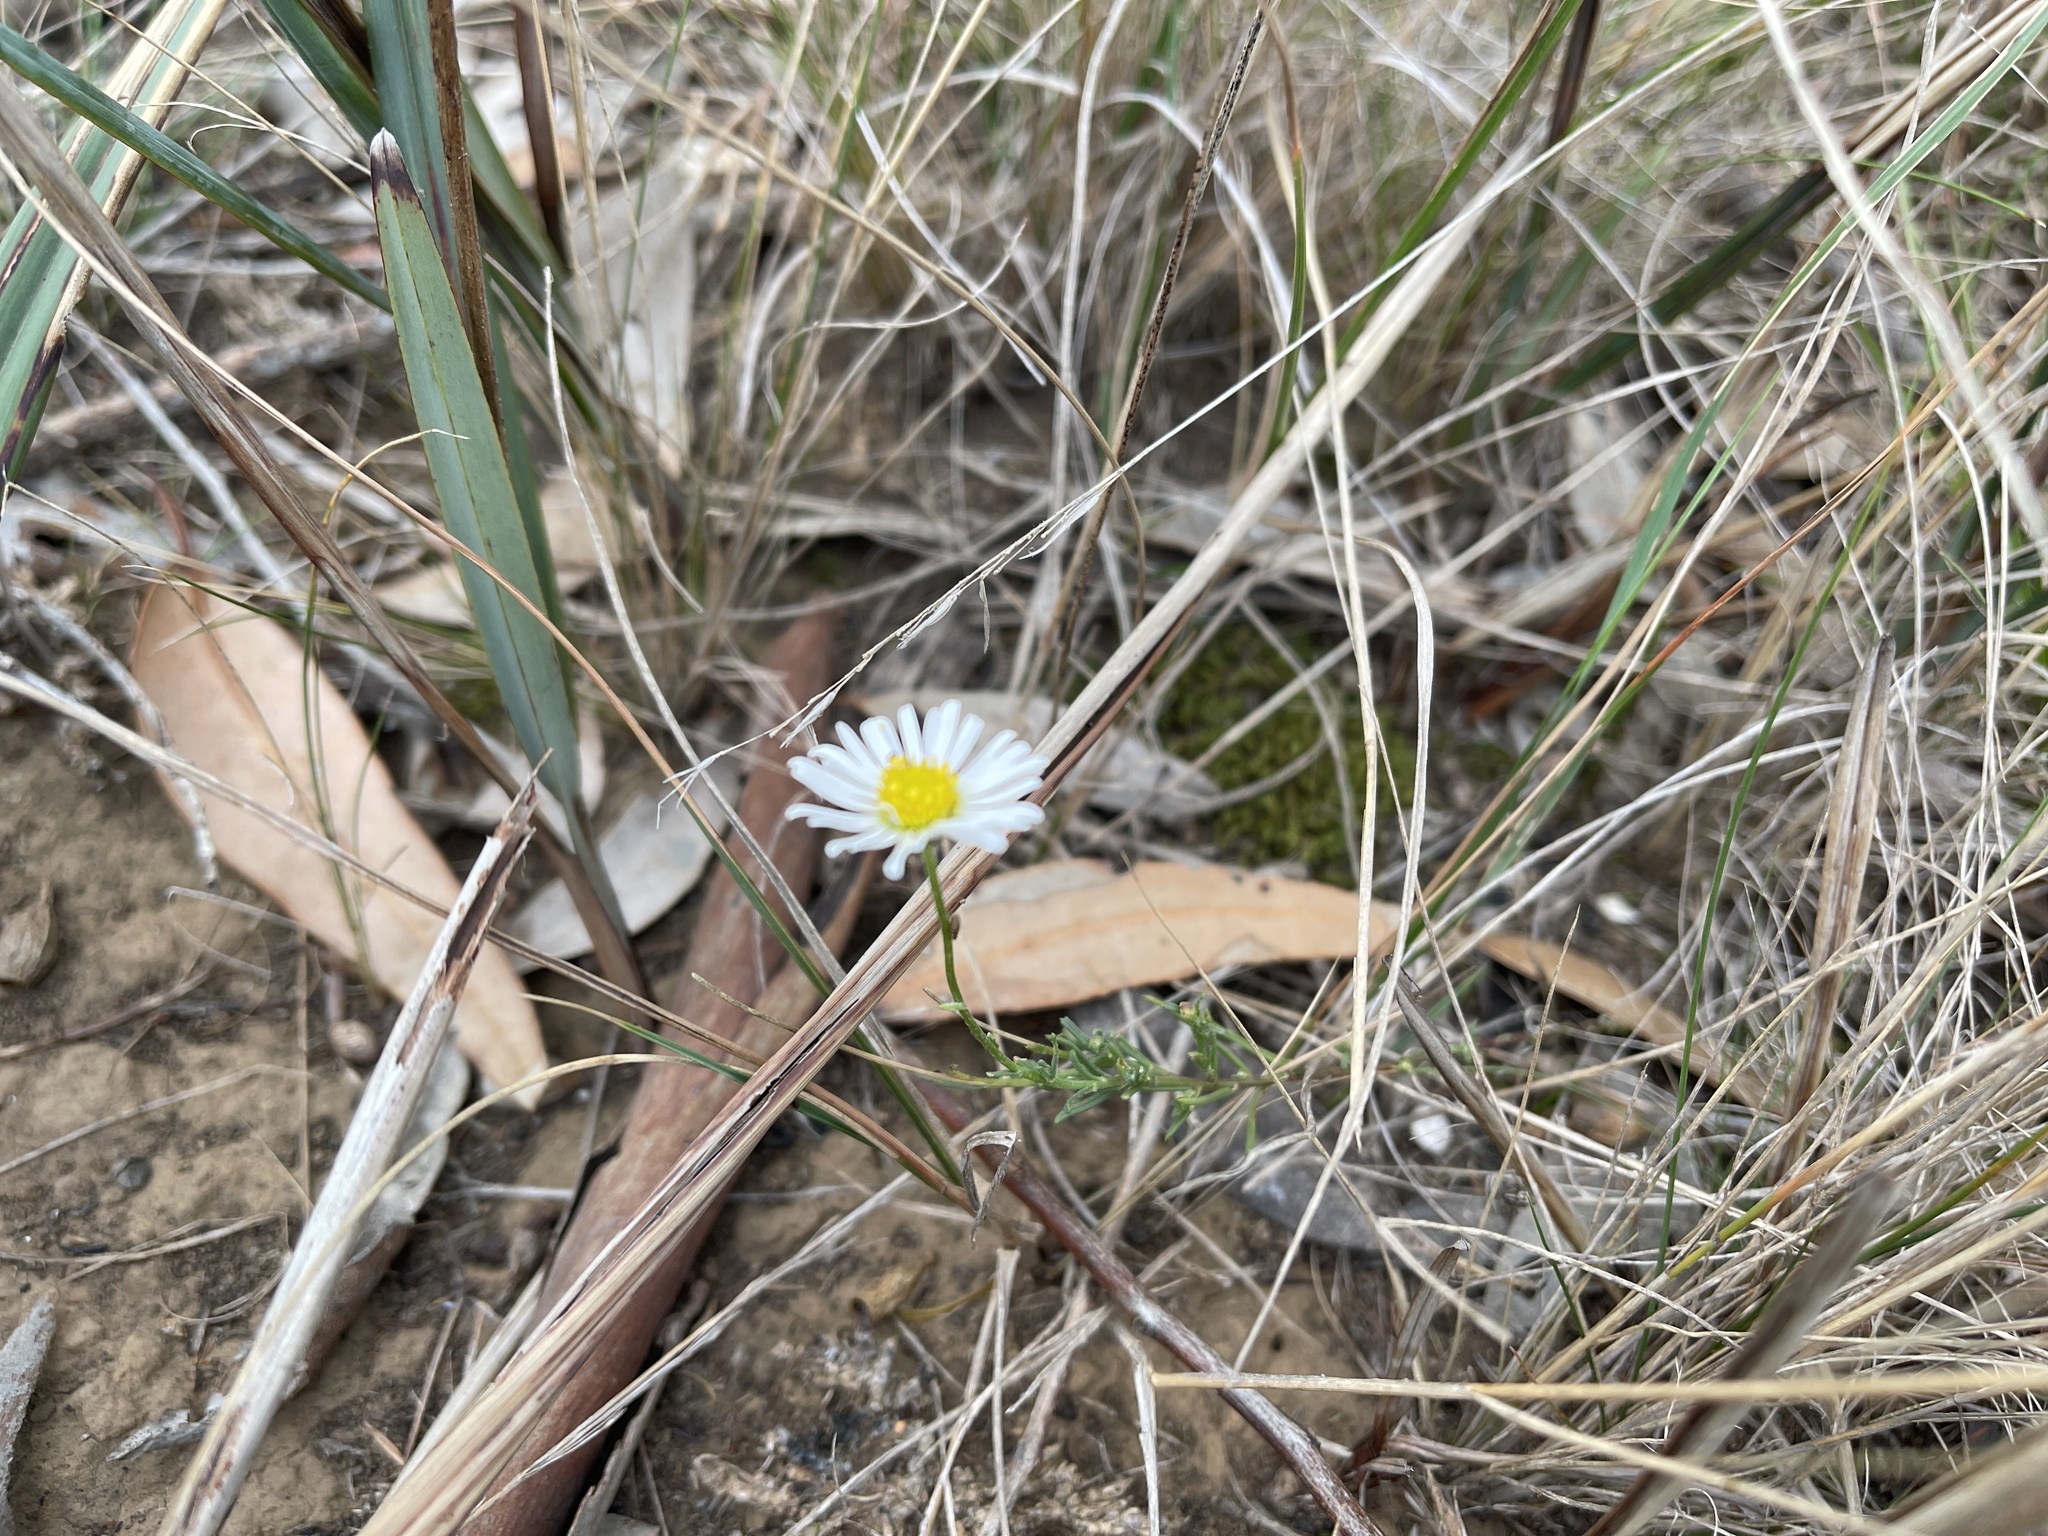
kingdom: Plantae
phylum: Tracheophyta
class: Magnoliopsida
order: Asterales
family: Asteraceae
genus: Vittadinia
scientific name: Vittadinia dentata
